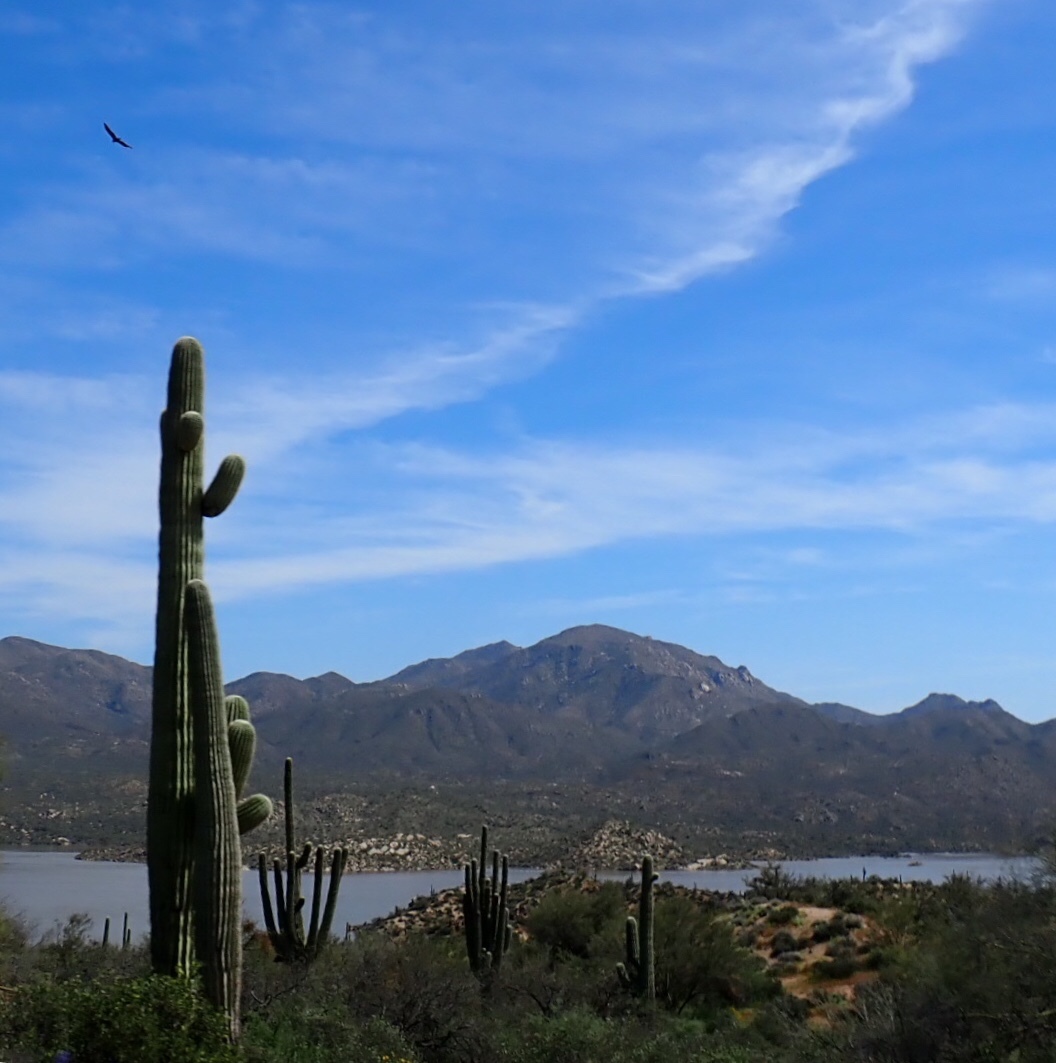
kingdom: Animalia
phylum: Chordata
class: Aves
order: Accipitriformes
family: Cathartidae
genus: Cathartes
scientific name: Cathartes aura
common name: Turkey vulture
